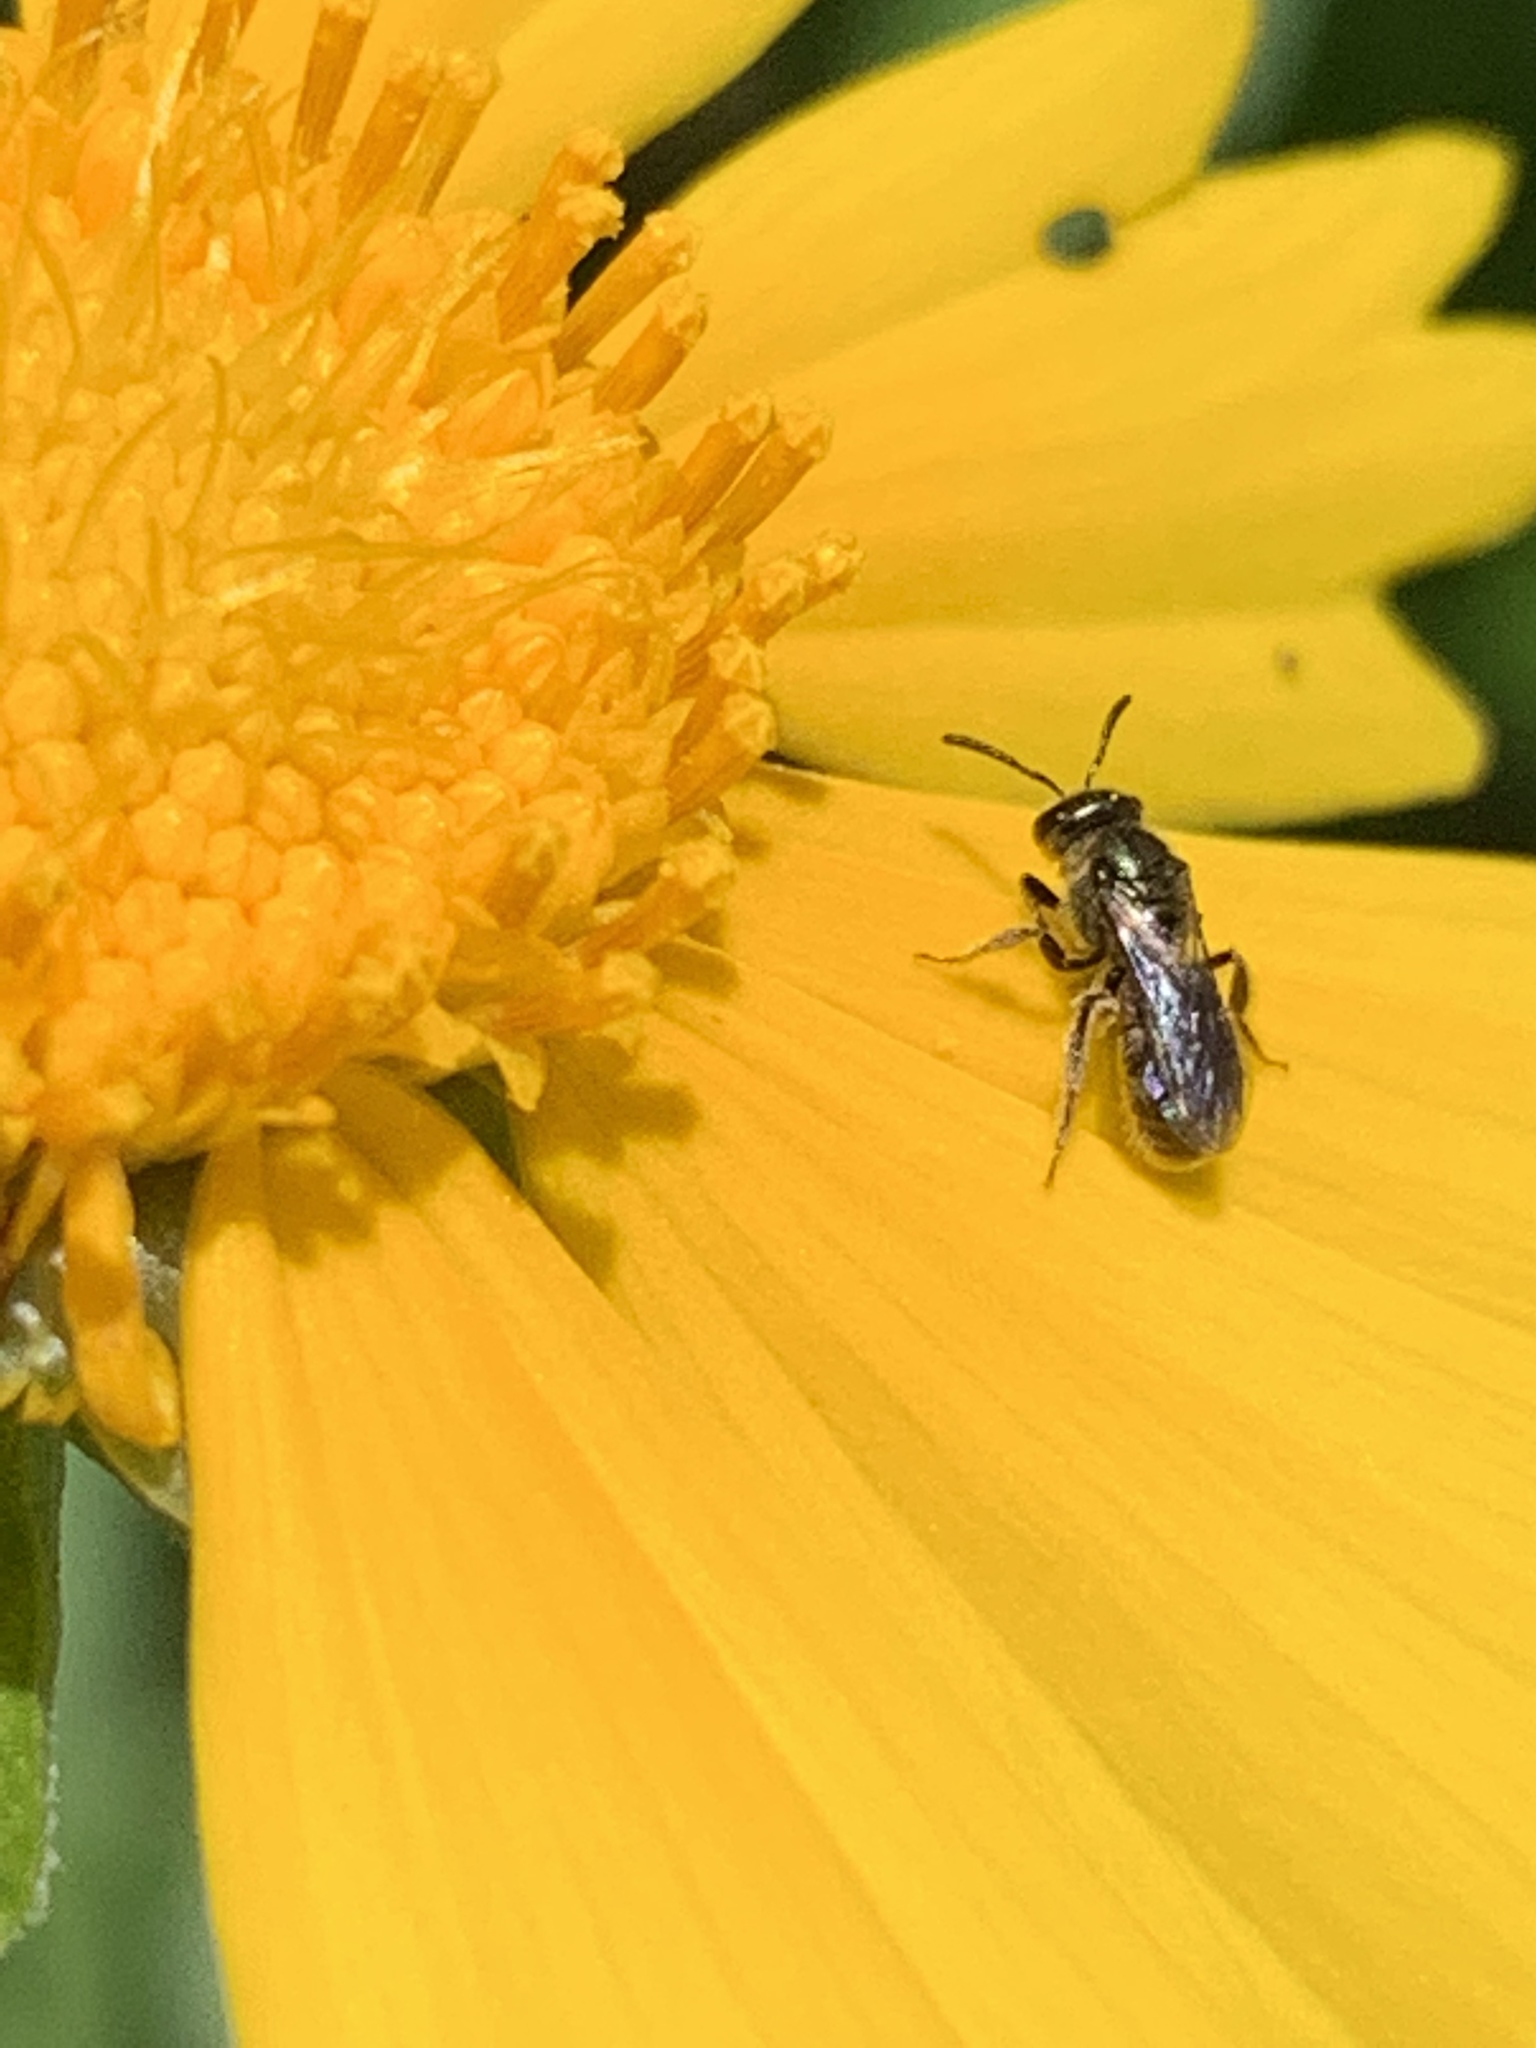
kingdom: Animalia
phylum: Arthropoda
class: Insecta
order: Hymenoptera
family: Halictidae
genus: Dialictus
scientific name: Dialictus
